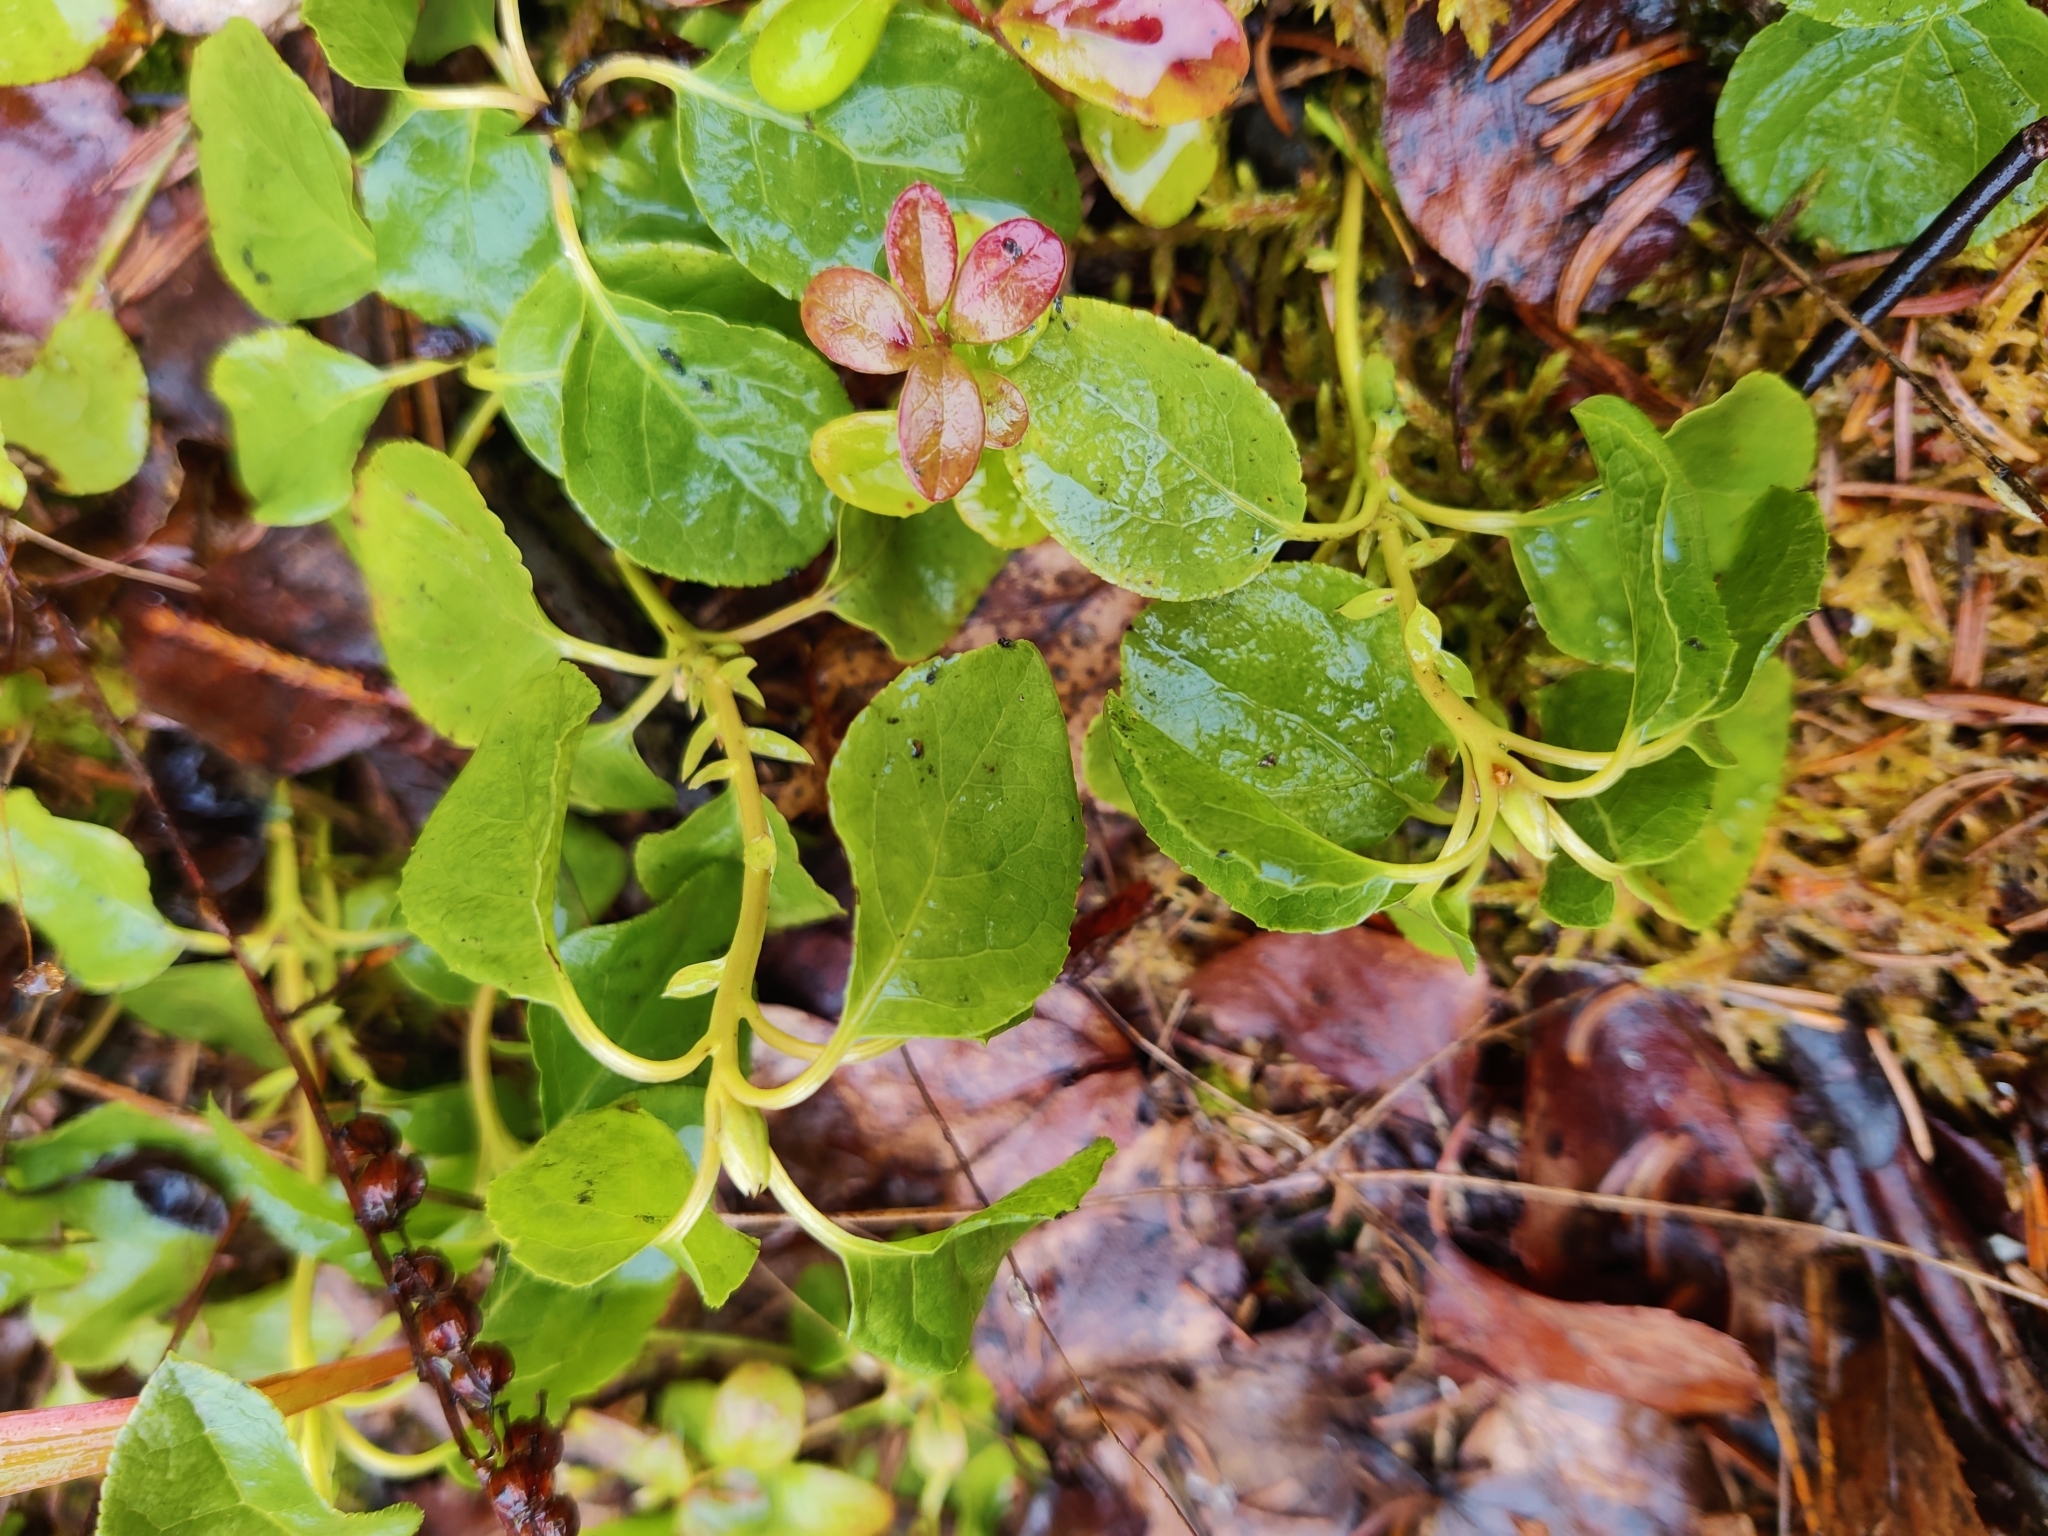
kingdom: Plantae
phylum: Tracheophyta
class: Magnoliopsida
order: Ericales
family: Ericaceae
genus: Orthilia
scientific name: Orthilia secunda
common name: One-sided orthilia
